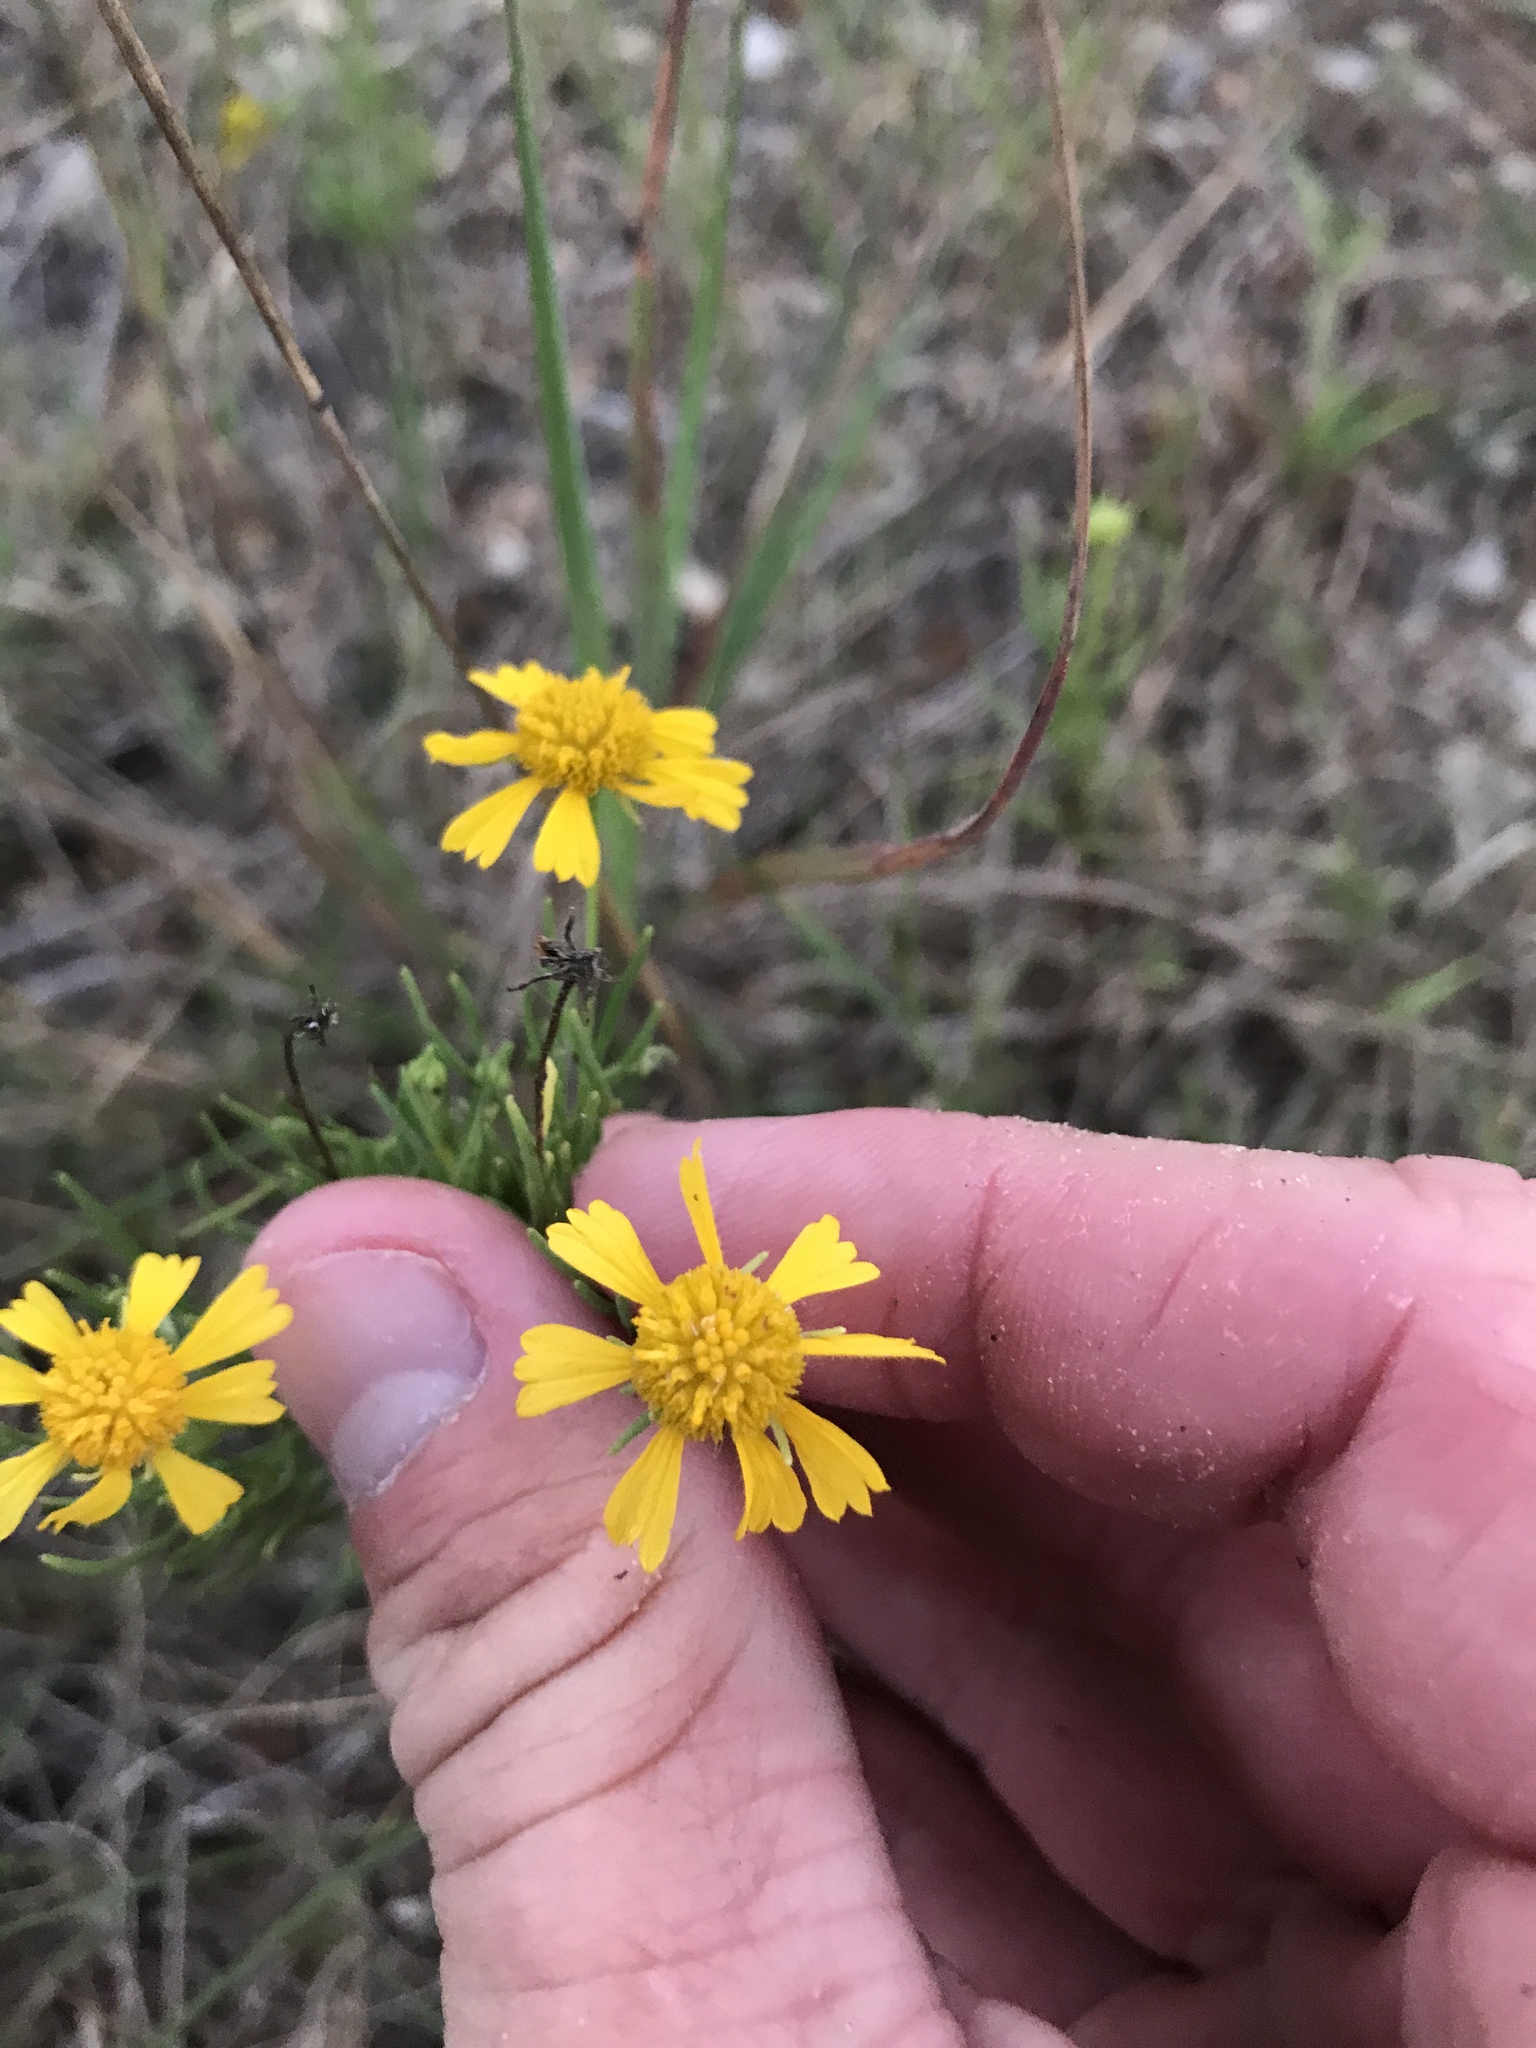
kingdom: Plantae
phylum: Tracheophyta
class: Magnoliopsida
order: Asterales
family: Asteraceae
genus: Helenium
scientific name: Helenium amarum
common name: Bitter sneezeweed
